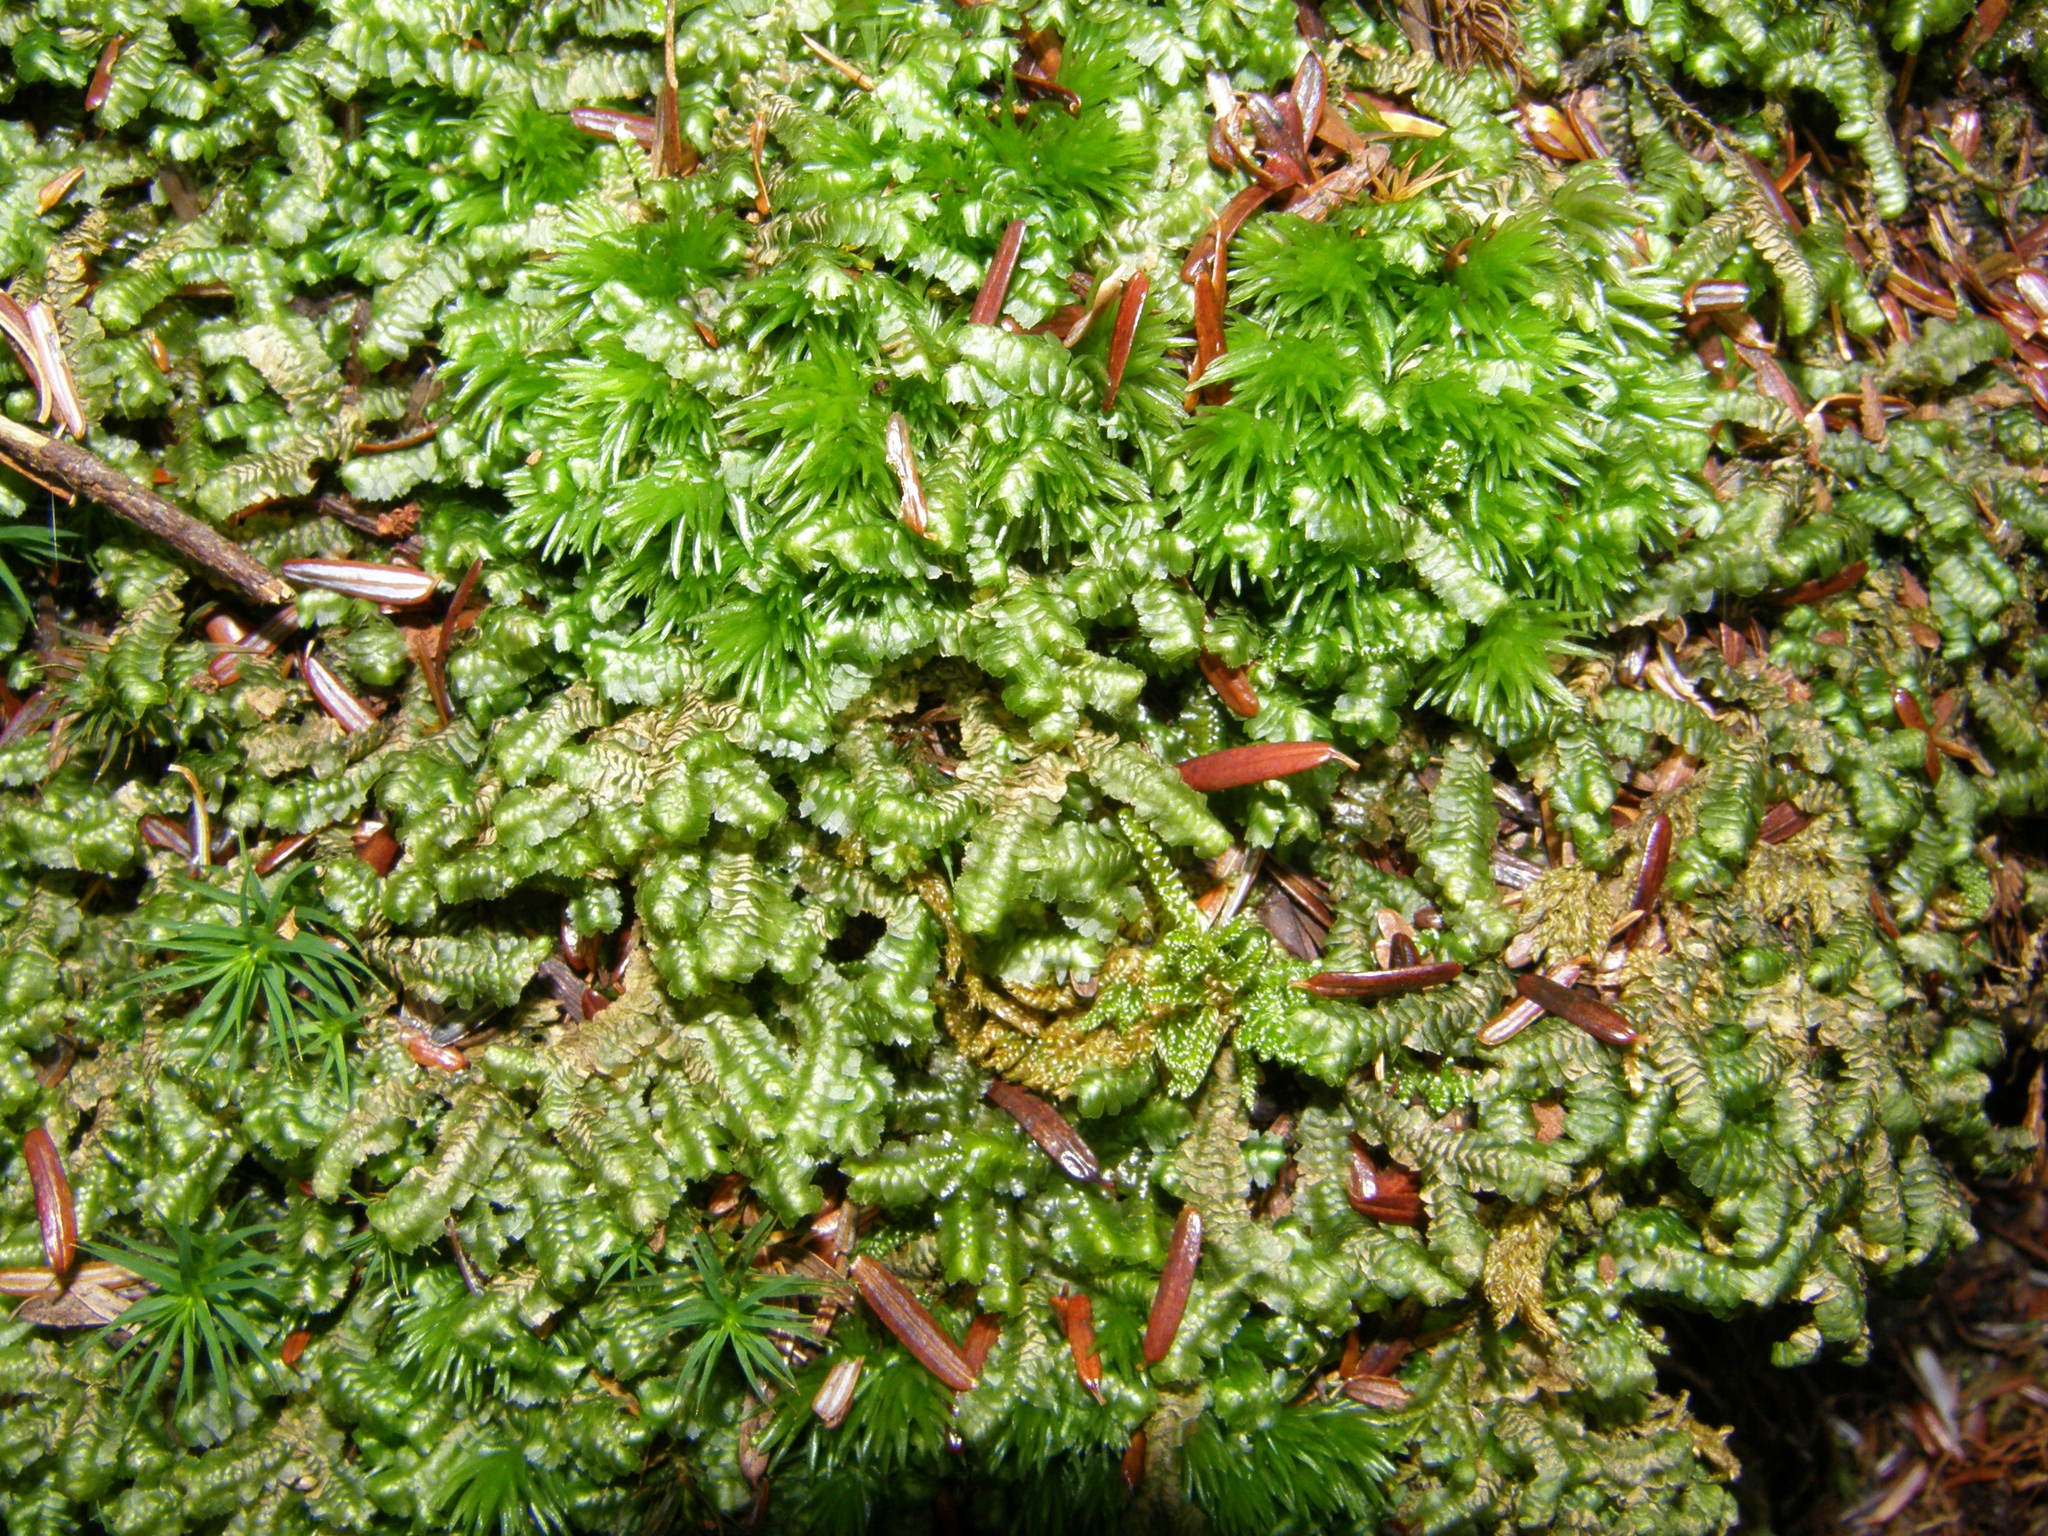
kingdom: Plantae
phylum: Marchantiophyta
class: Jungermanniopsida
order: Jungermanniales
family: Lepidoziaceae
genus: Bazzania
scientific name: Bazzania trilobata
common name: Three-lobed whipwort
